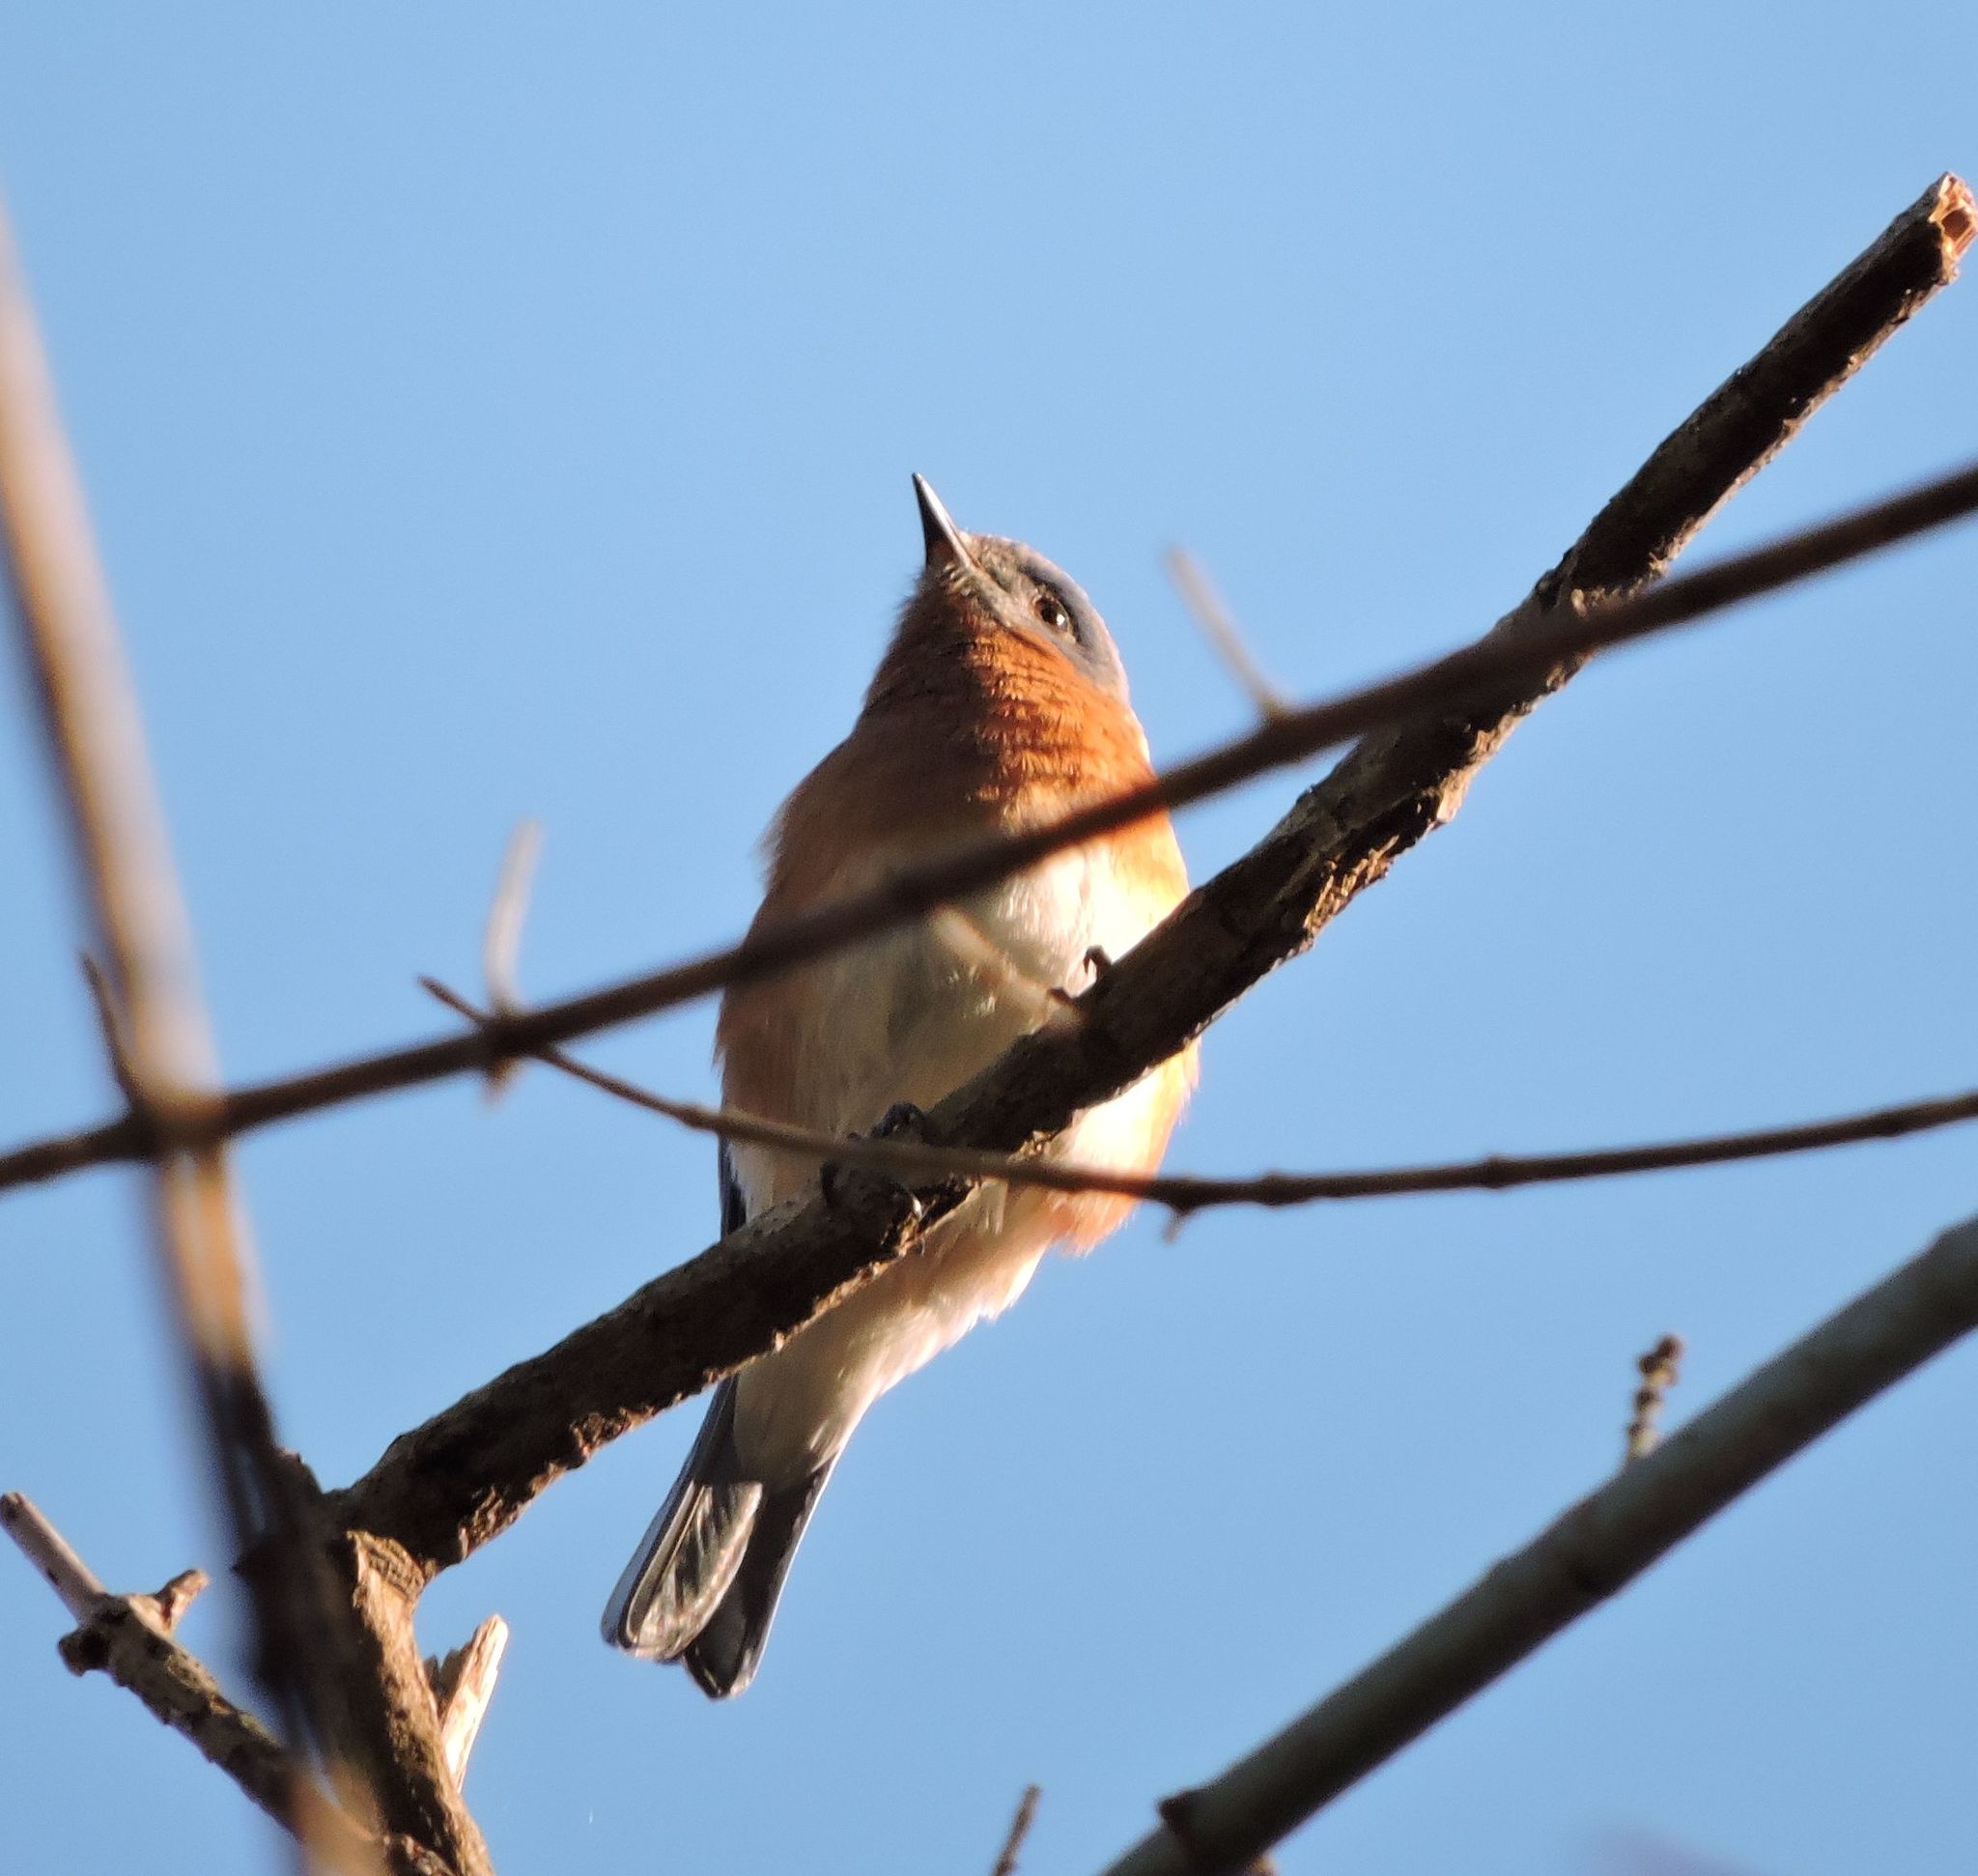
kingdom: Animalia
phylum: Chordata
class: Aves
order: Passeriformes
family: Turdidae
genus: Sialia
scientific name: Sialia sialis
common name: Eastern bluebird
